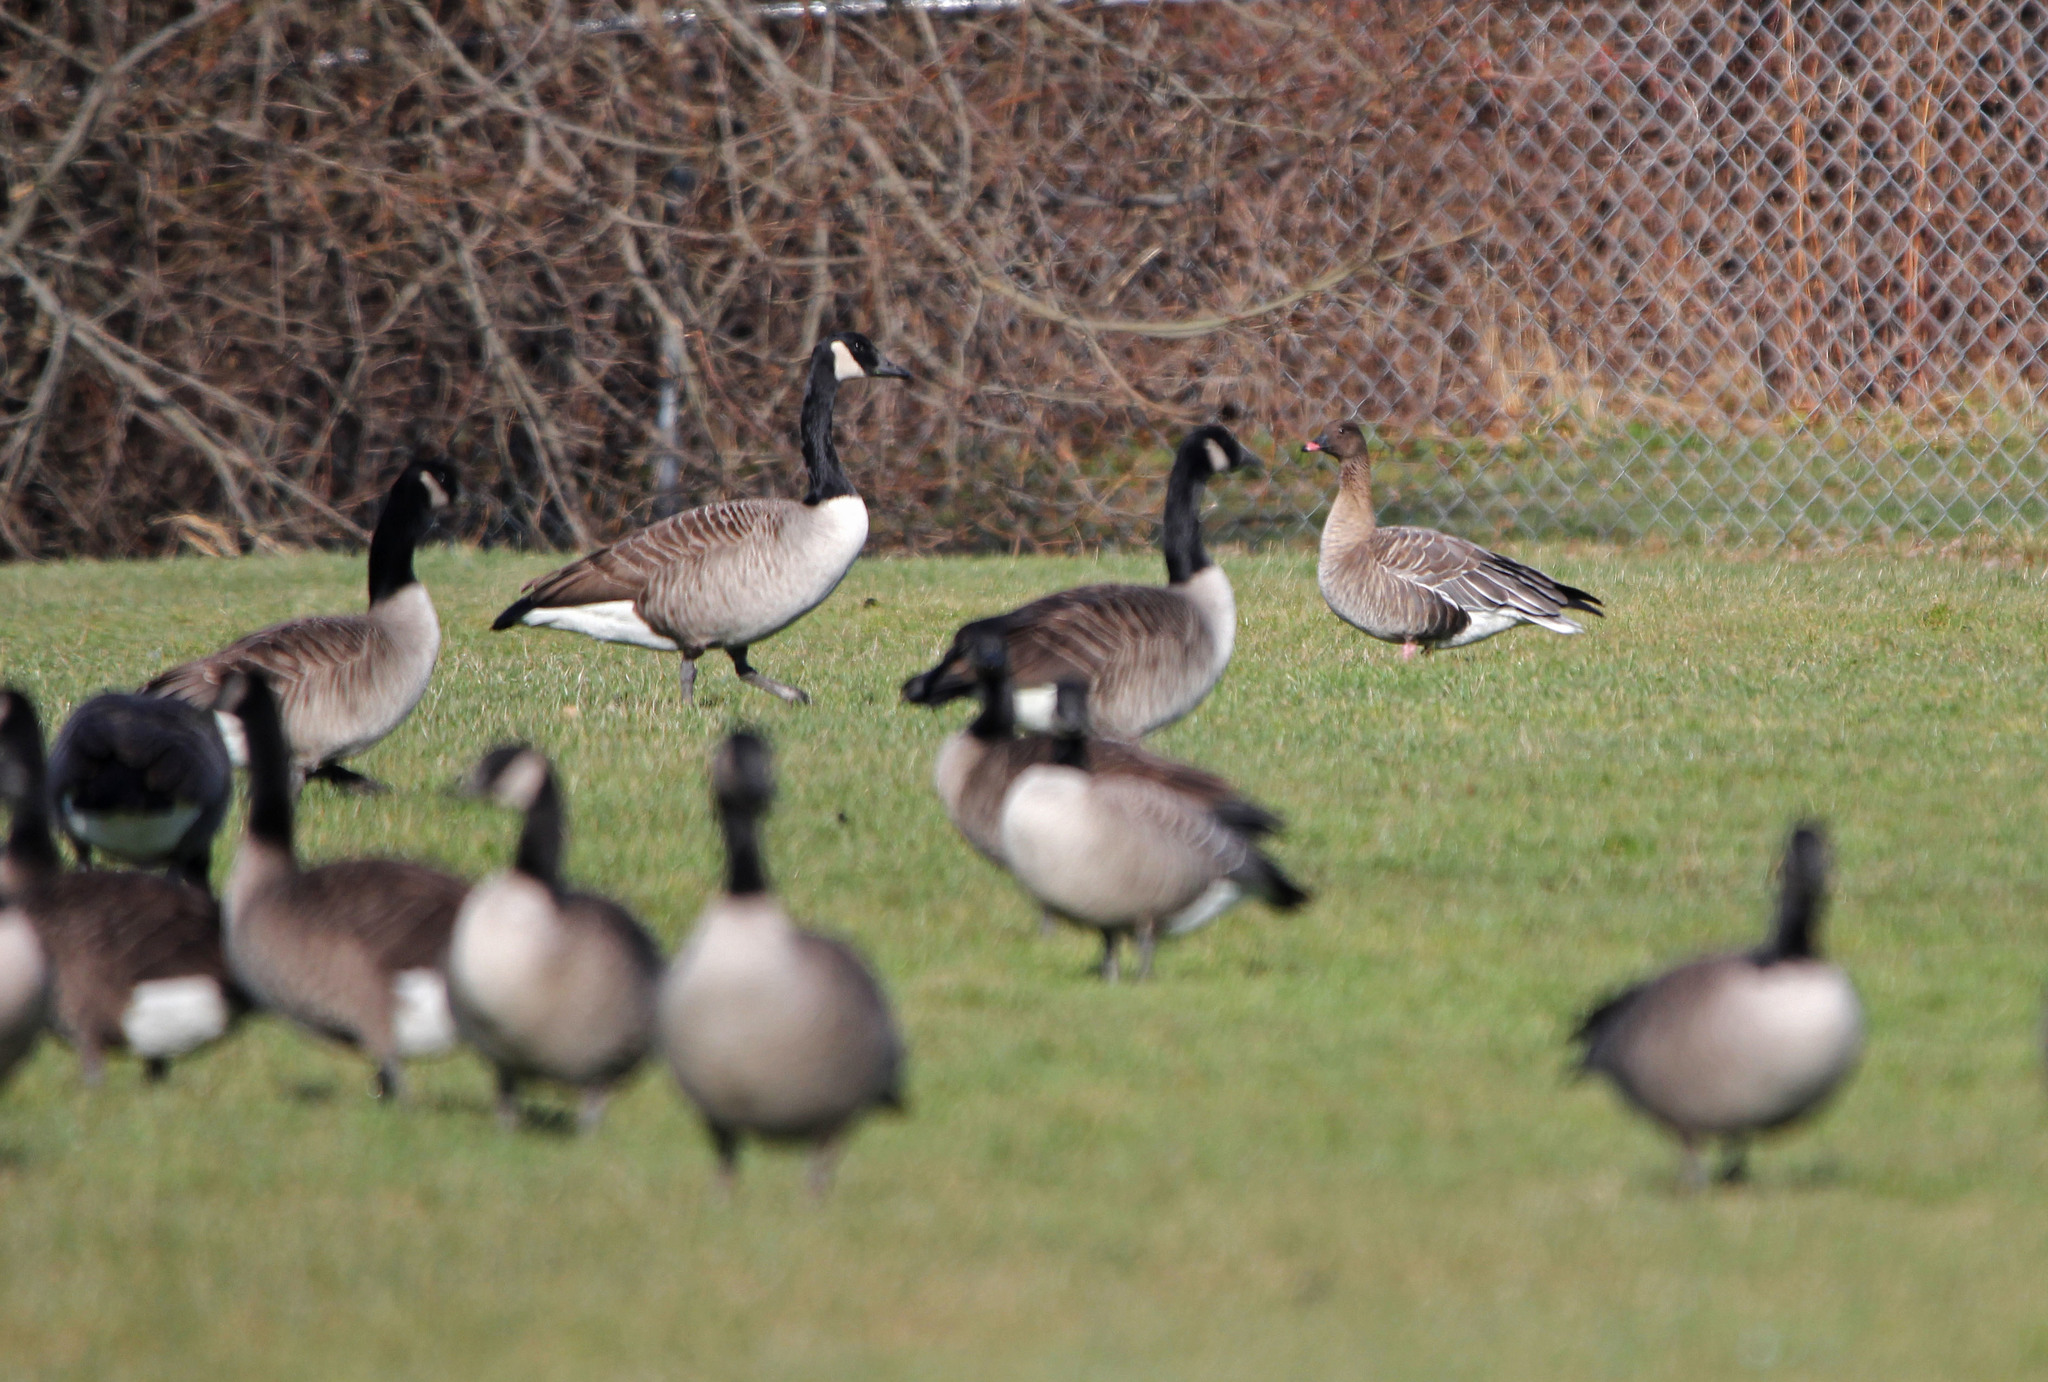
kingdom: Animalia
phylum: Chordata
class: Aves
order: Anseriformes
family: Anatidae
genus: Anser
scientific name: Anser brachyrhynchus
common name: Pink-footed goose
